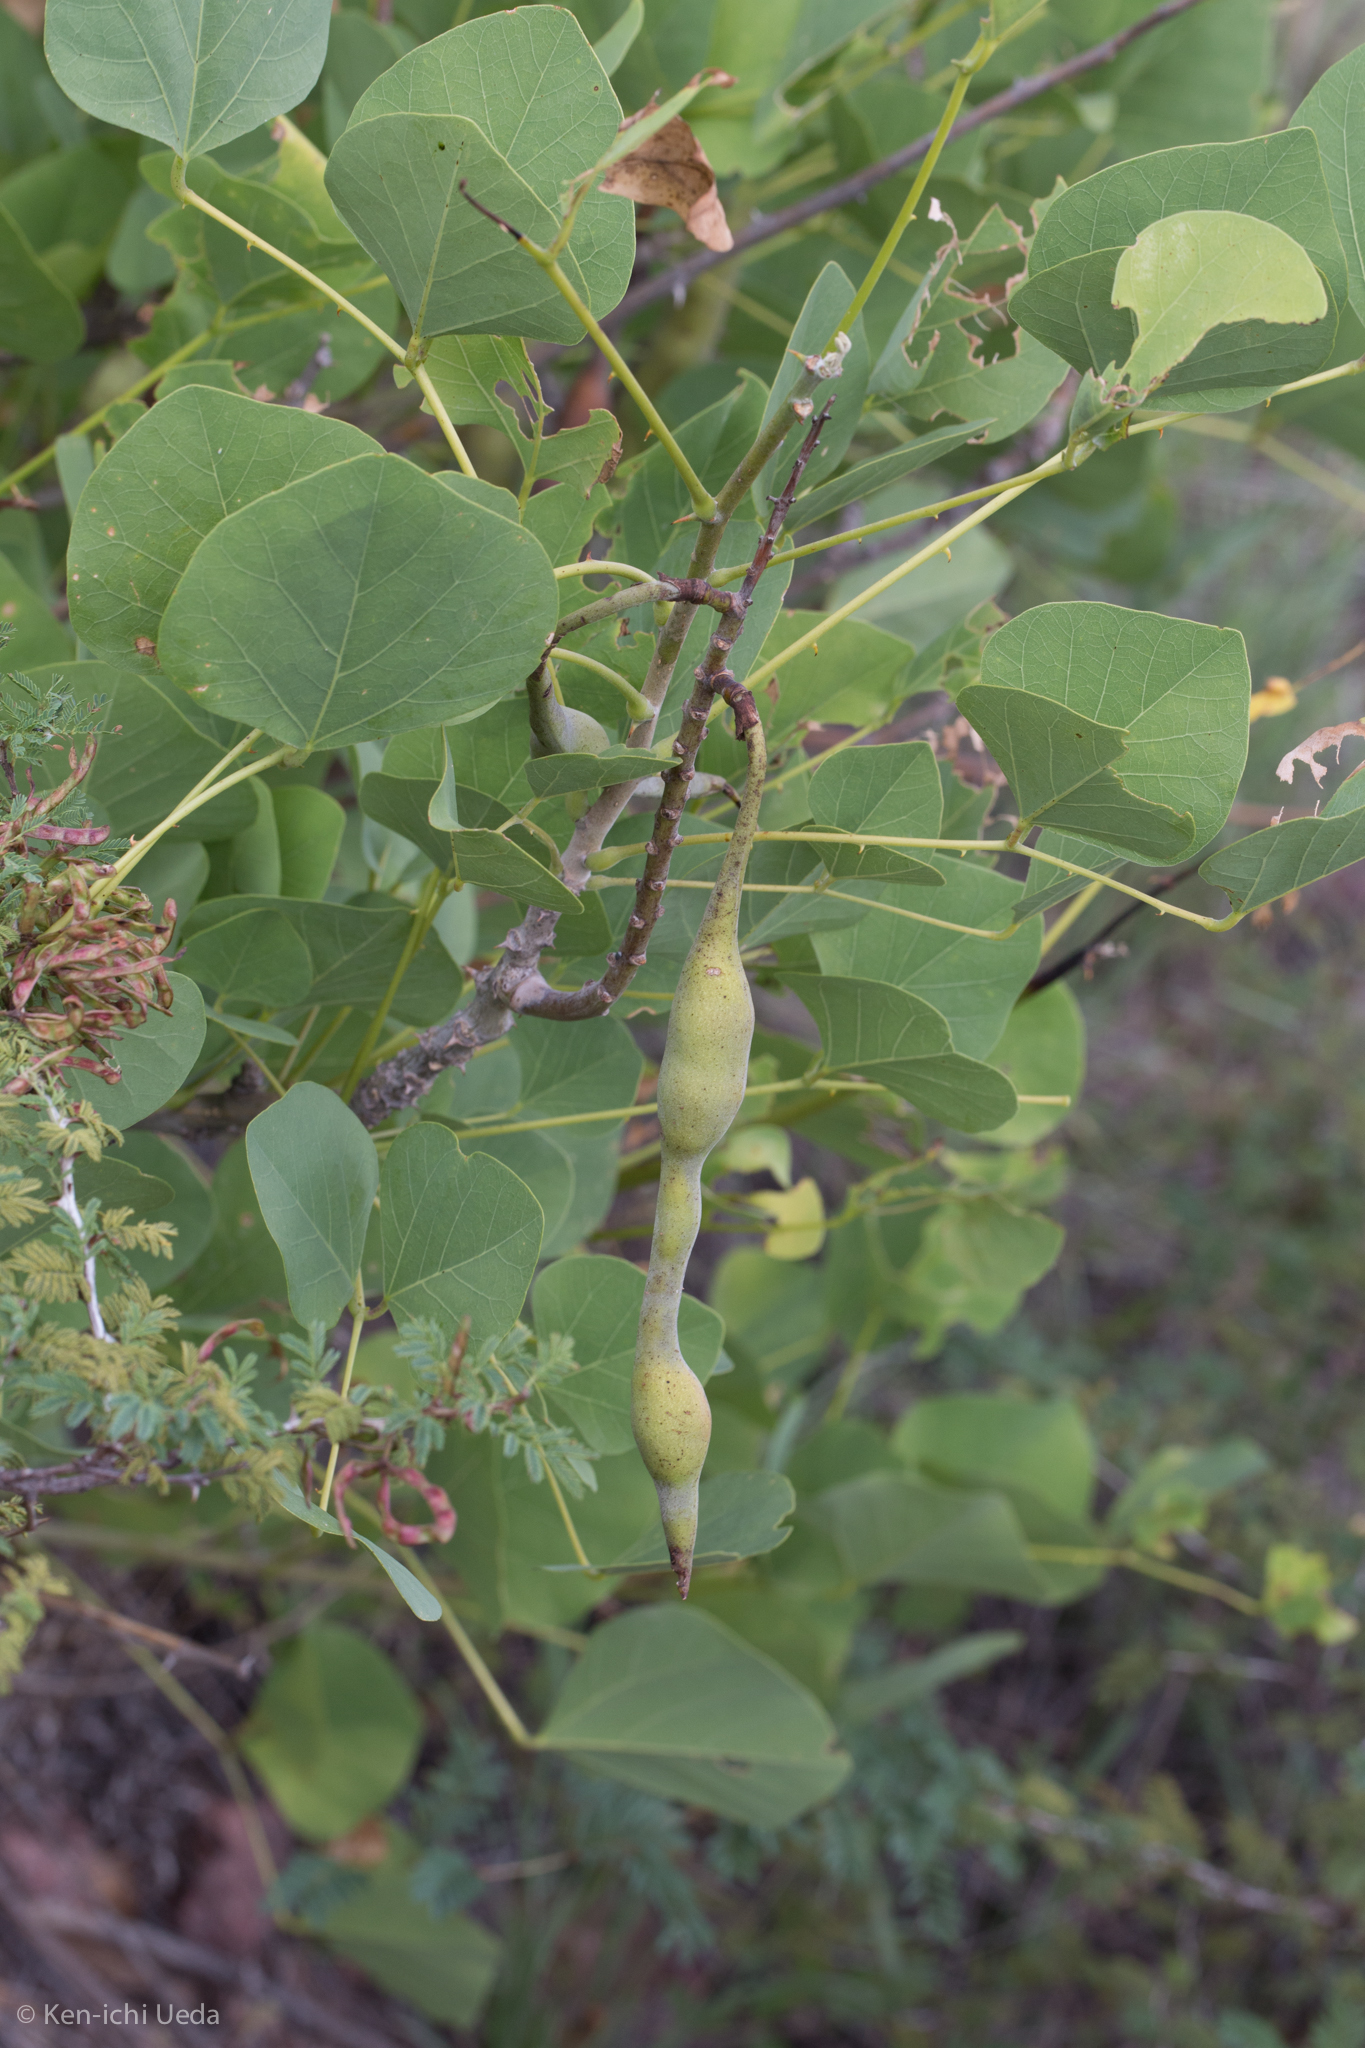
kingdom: Plantae
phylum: Tracheophyta
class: Magnoliopsida
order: Fabales
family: Fabaceae
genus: Erythrina
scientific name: Erythrina flabelliformis
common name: Chilicote
